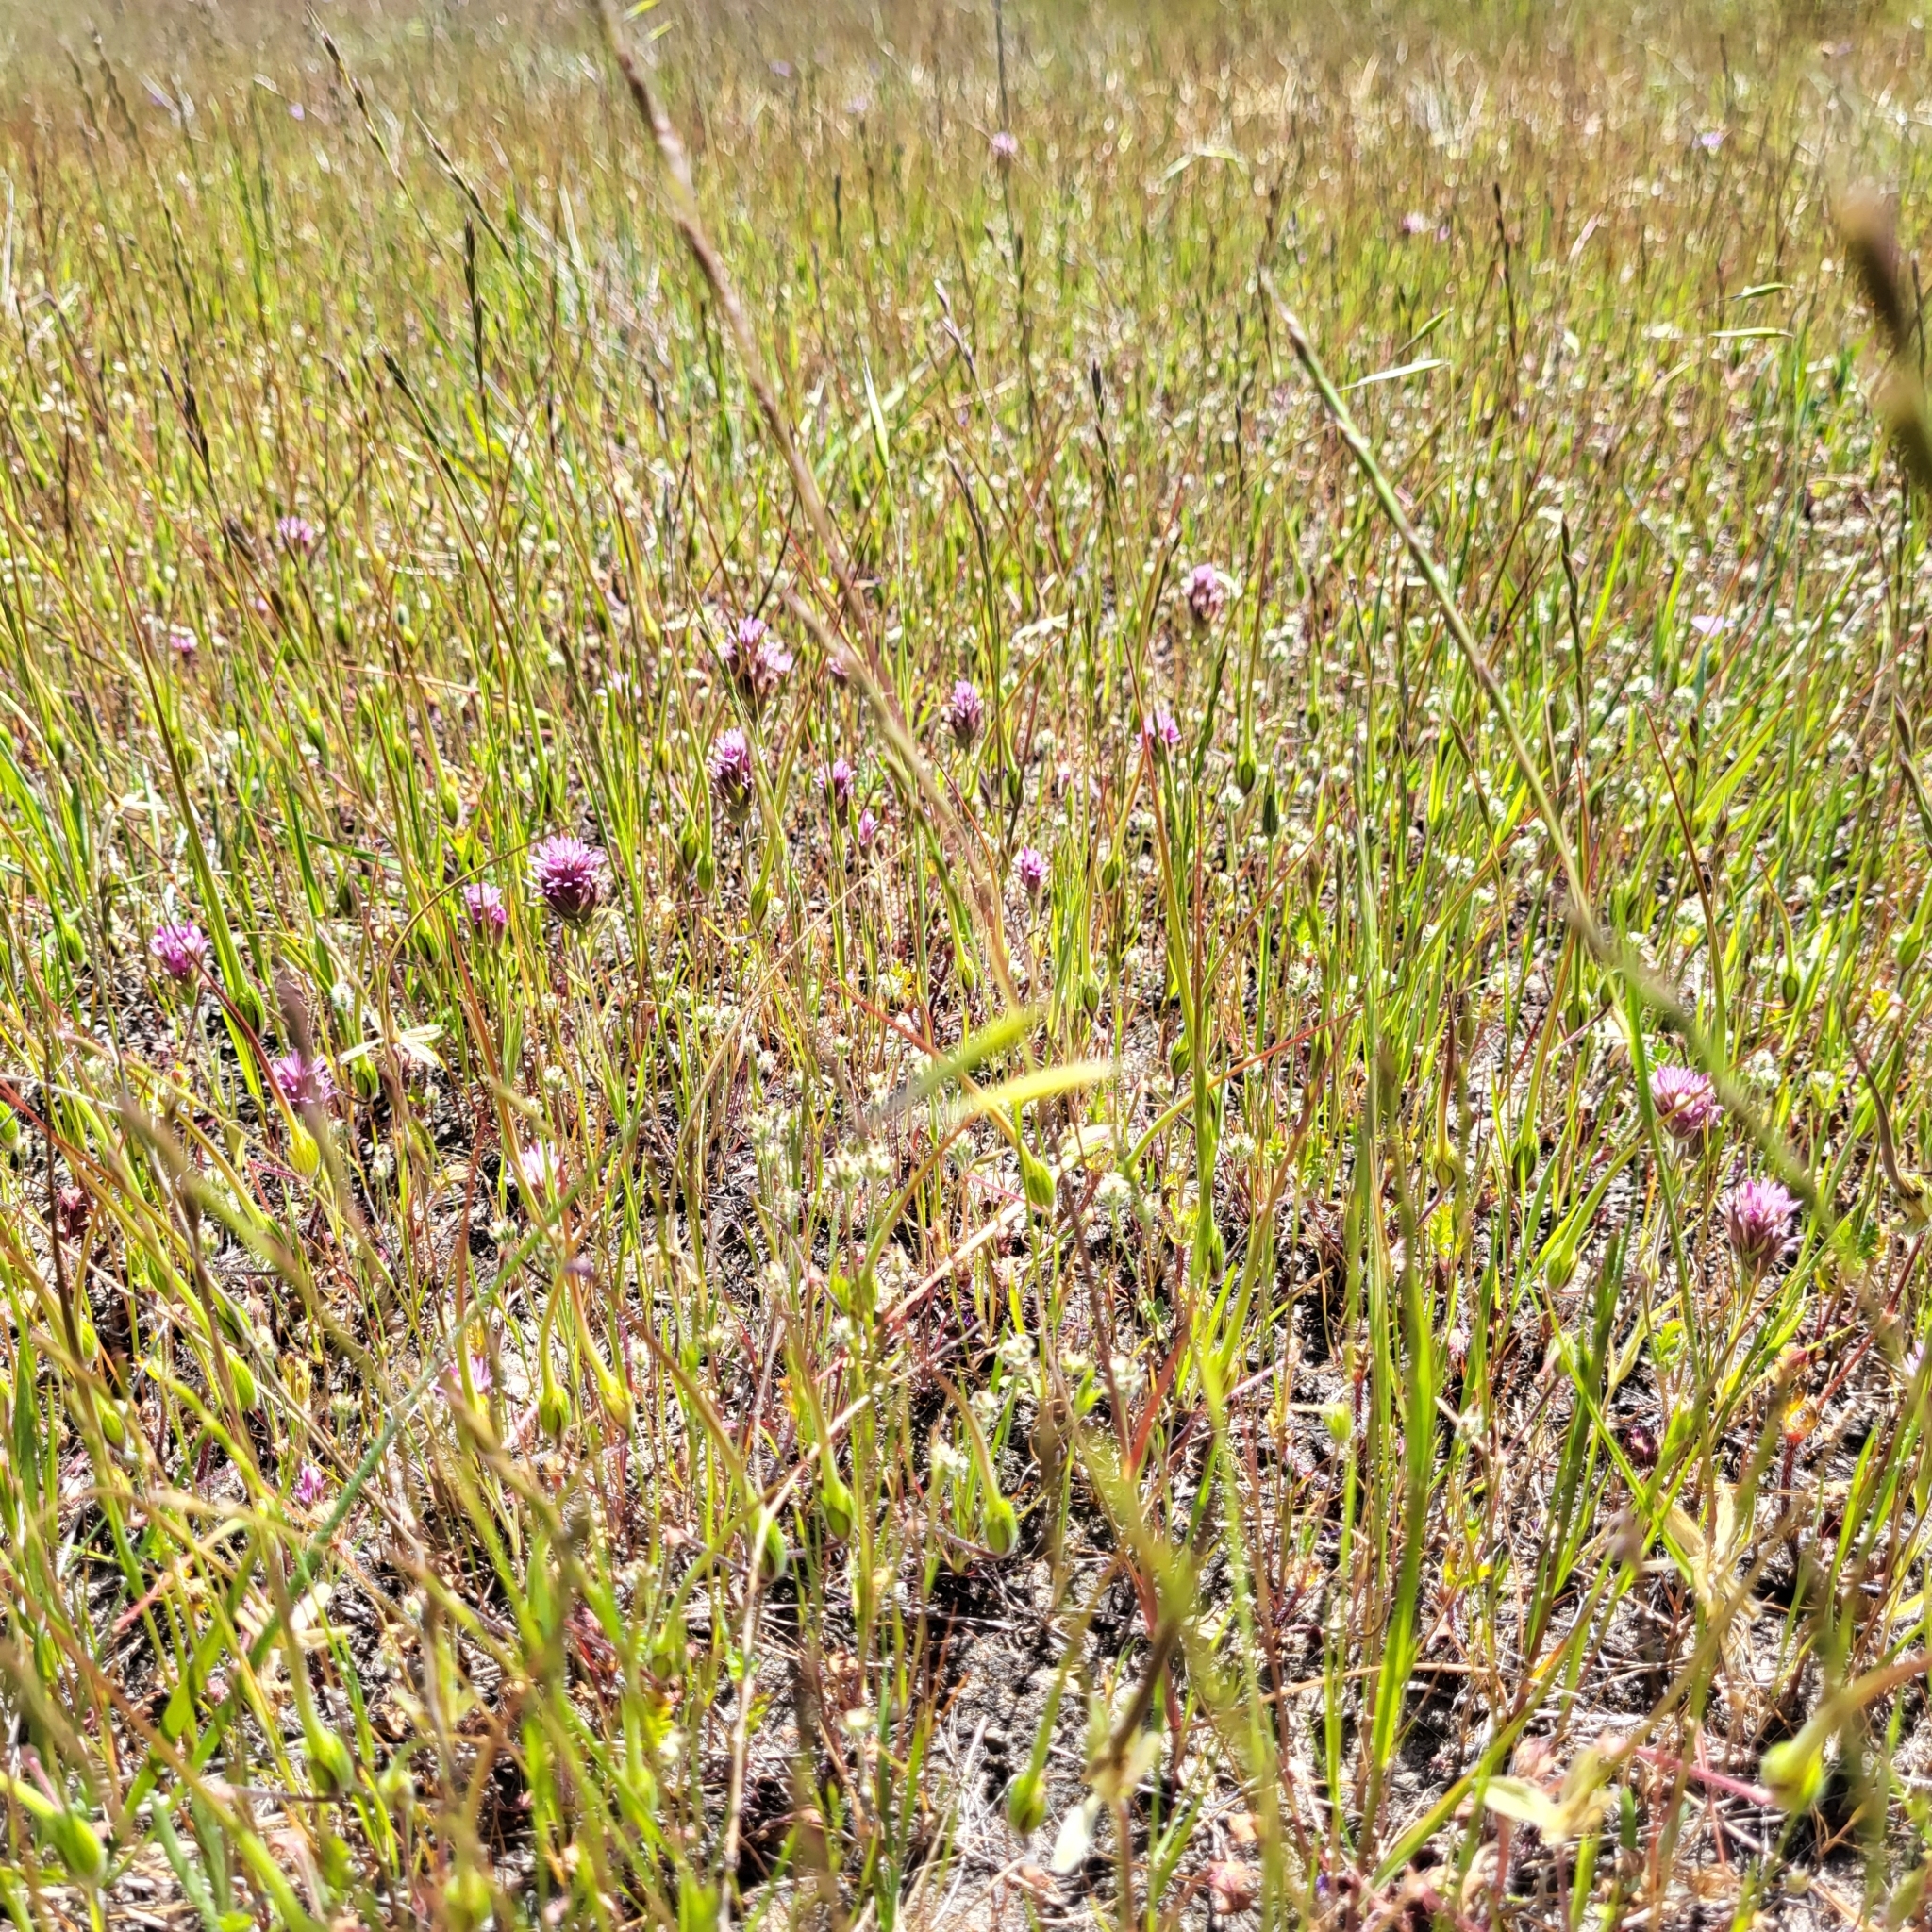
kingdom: Plantae
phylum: Tracheophyta
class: Magnoliopsida
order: Lamiales
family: Orobanchaceae
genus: Castilleja
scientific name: Castilleja densiflora
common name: Dense-flower indian paintbrush
